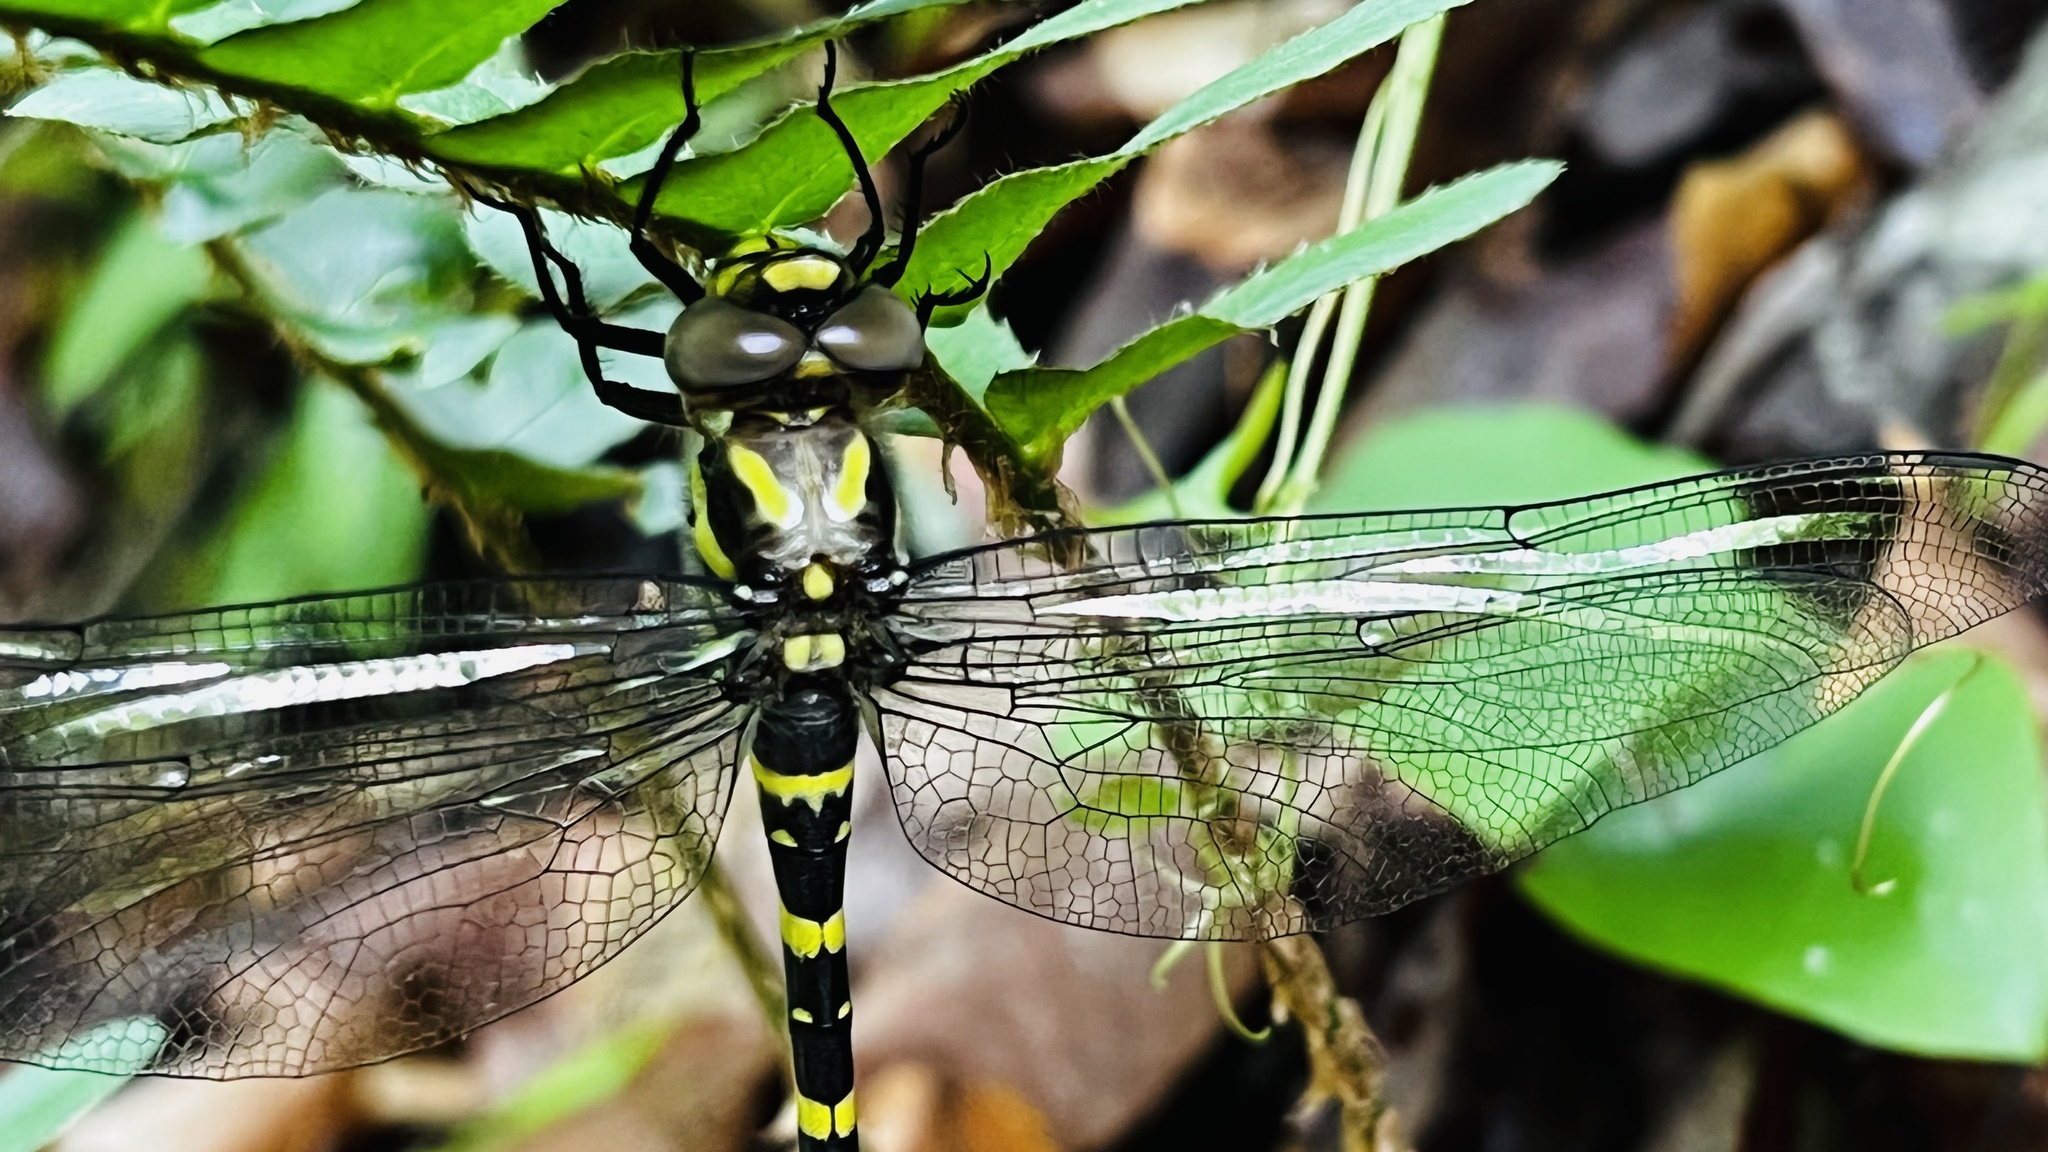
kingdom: Animalia
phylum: Arthropoda
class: Insecta
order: Odonata
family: Cordulegastridae
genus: Cordulegaster
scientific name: Cordulegaster erronea
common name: Tiger spiketail
